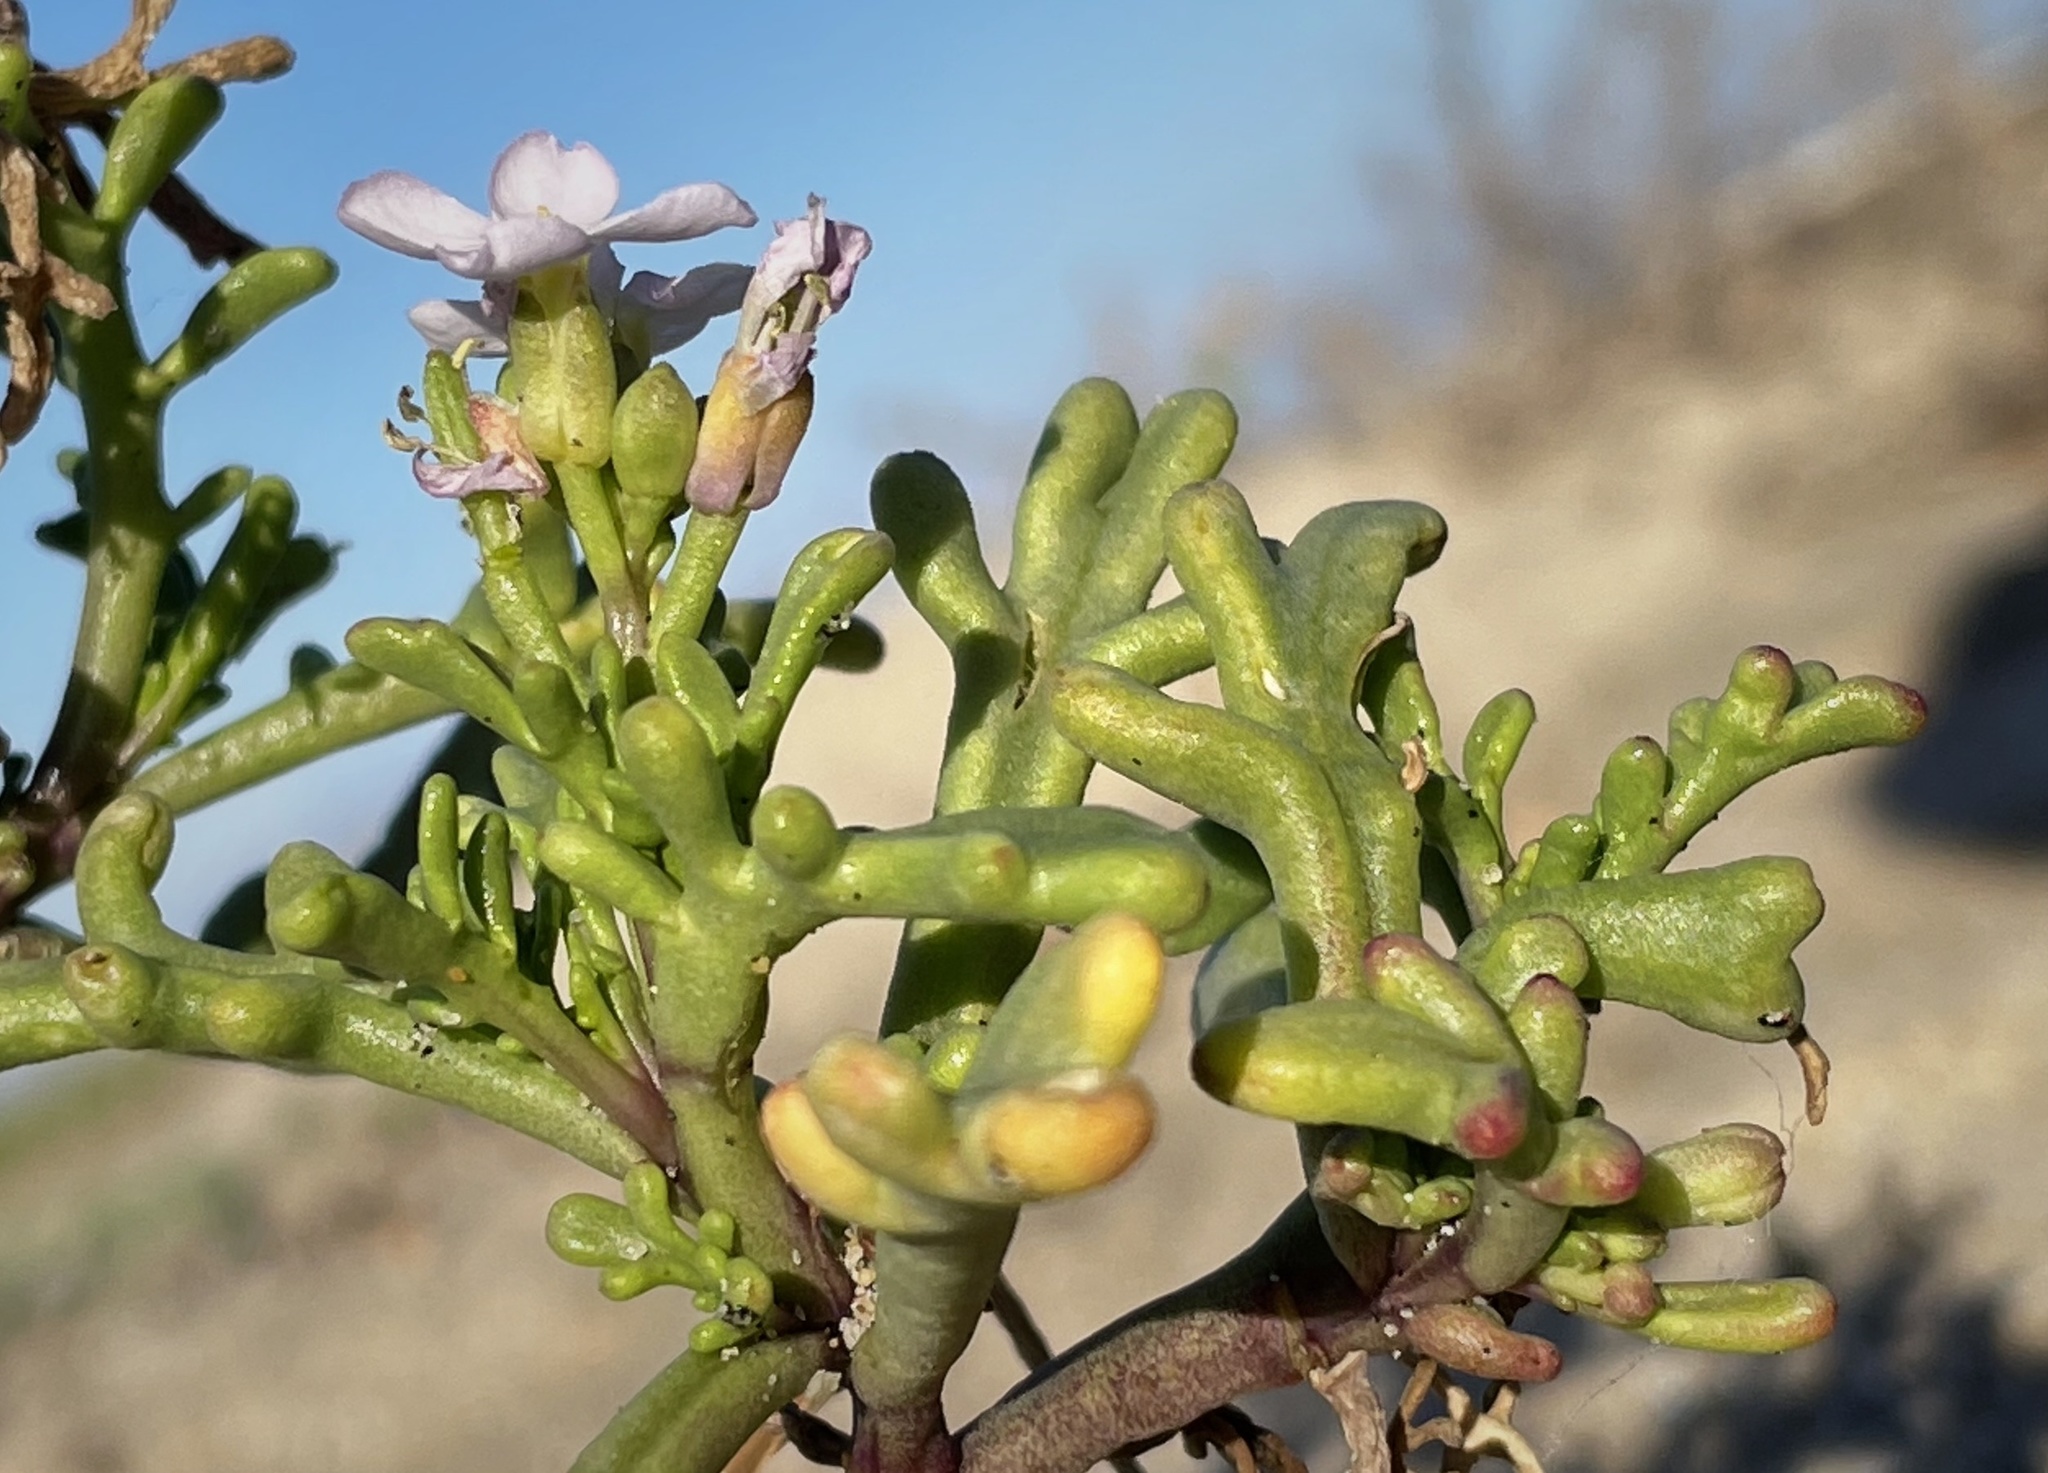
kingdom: Plantae
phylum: Tracheophyta
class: Magnoliopsida
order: Brassicales
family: Brassicaceae
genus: Cakile
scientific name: Cakile maritima
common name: Sea rocket
